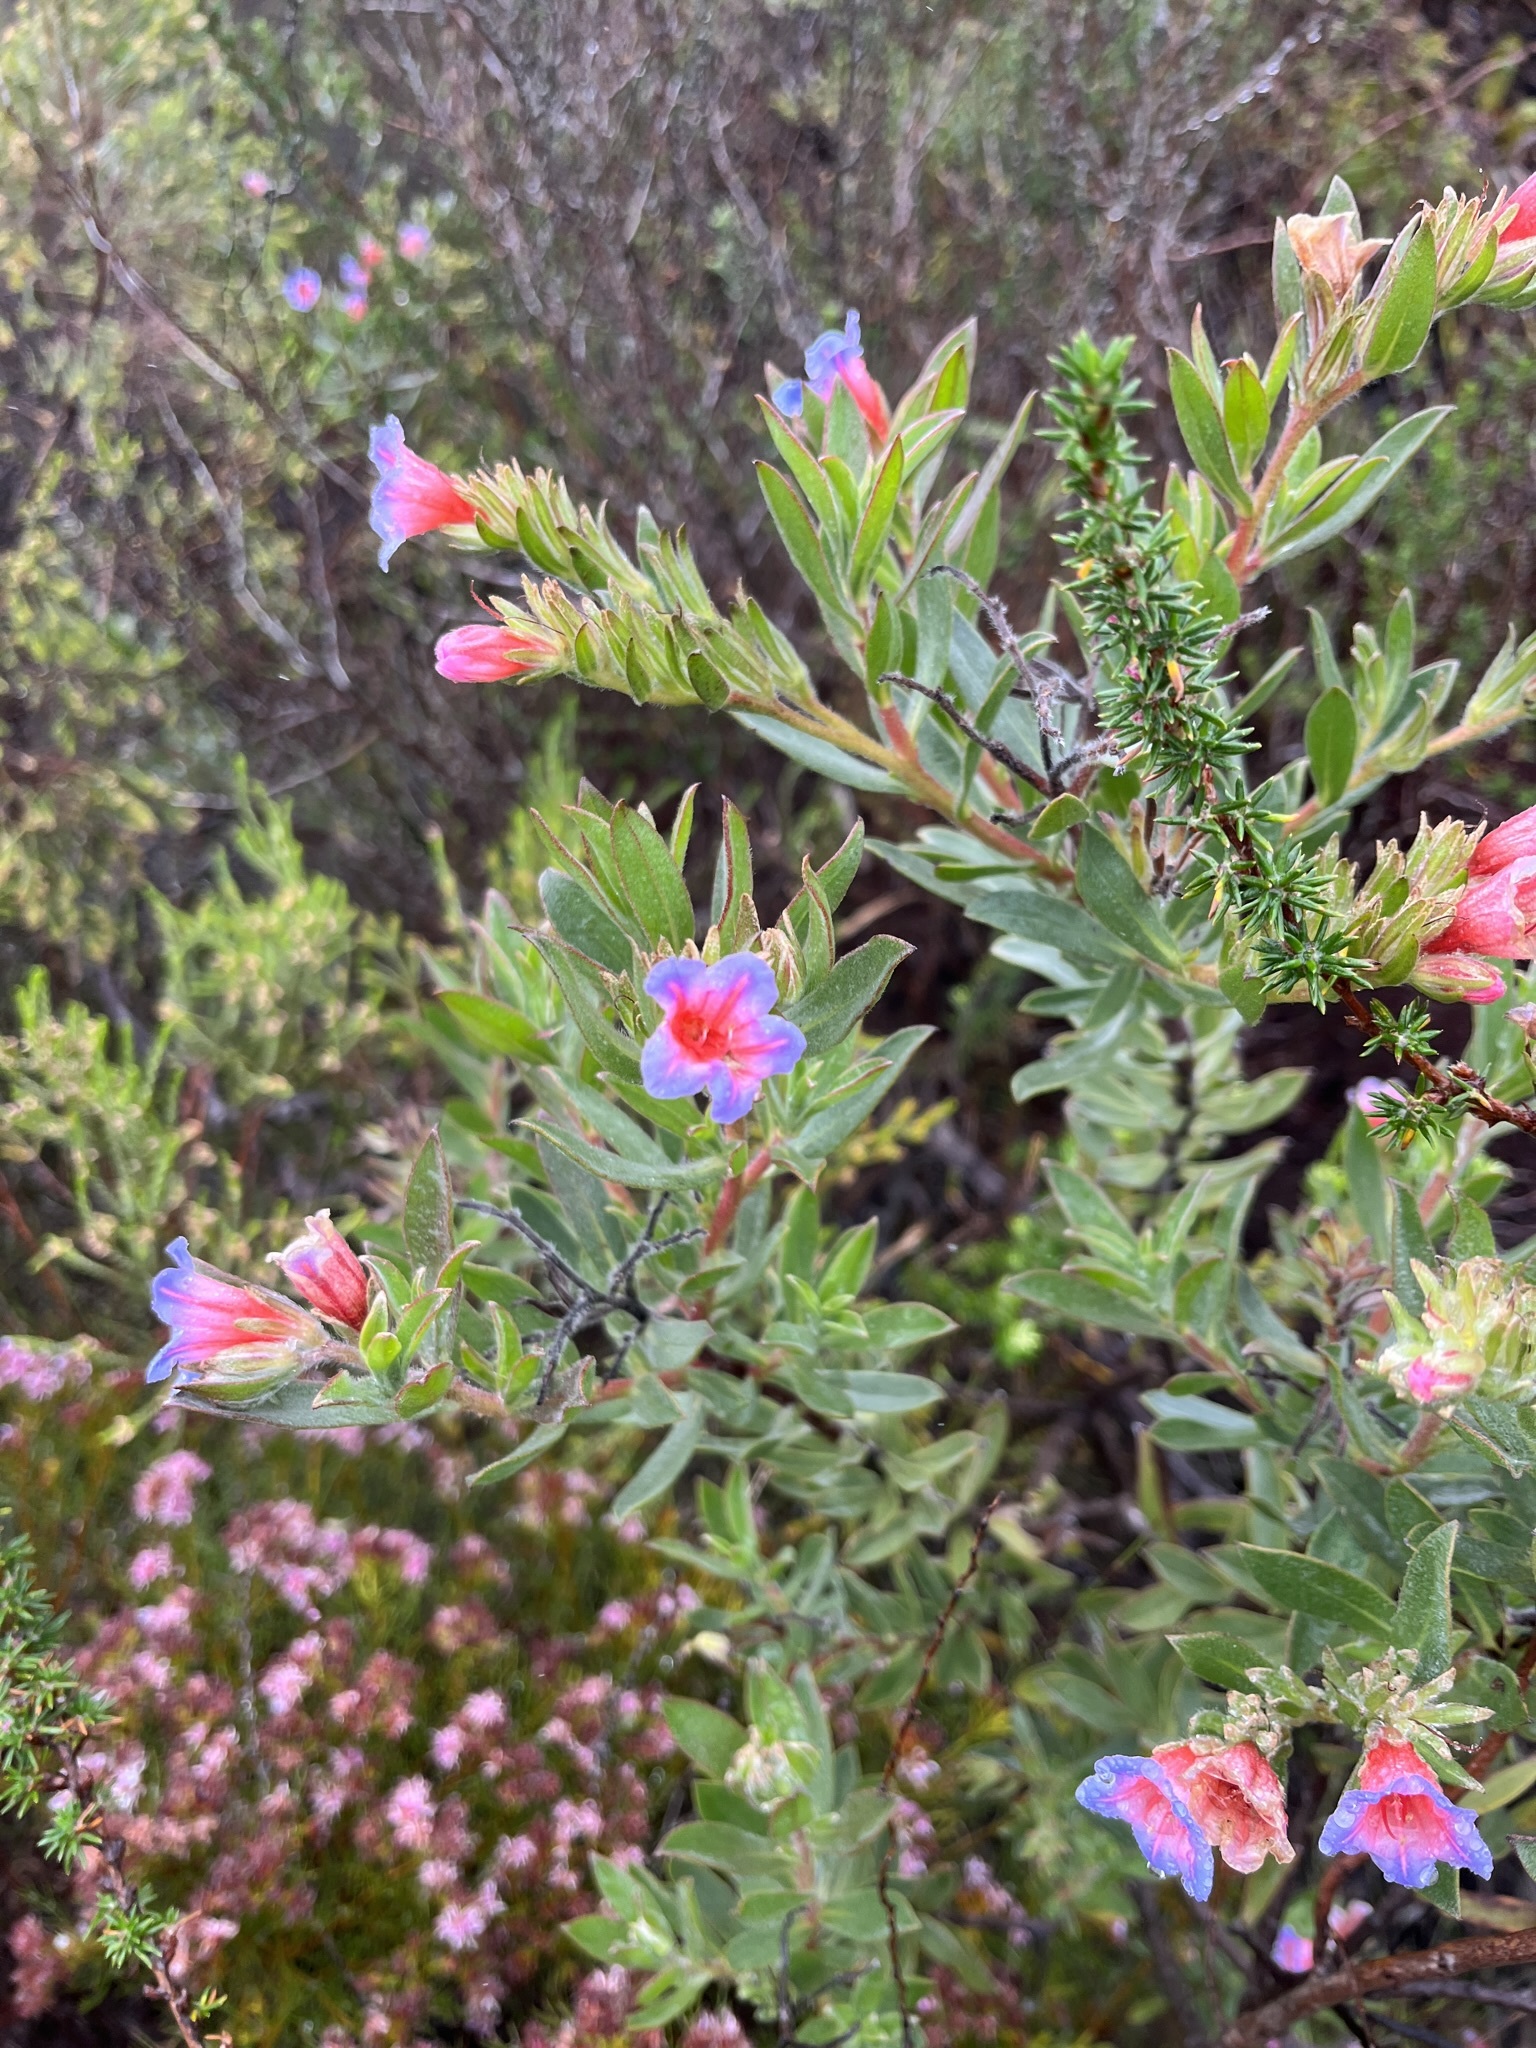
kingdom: Plantae
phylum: Tracheophyta
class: Magnoliopsida
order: Boraginales
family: Boraginaceae
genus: Lobostemon
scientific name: Lobostemon fruticosus
